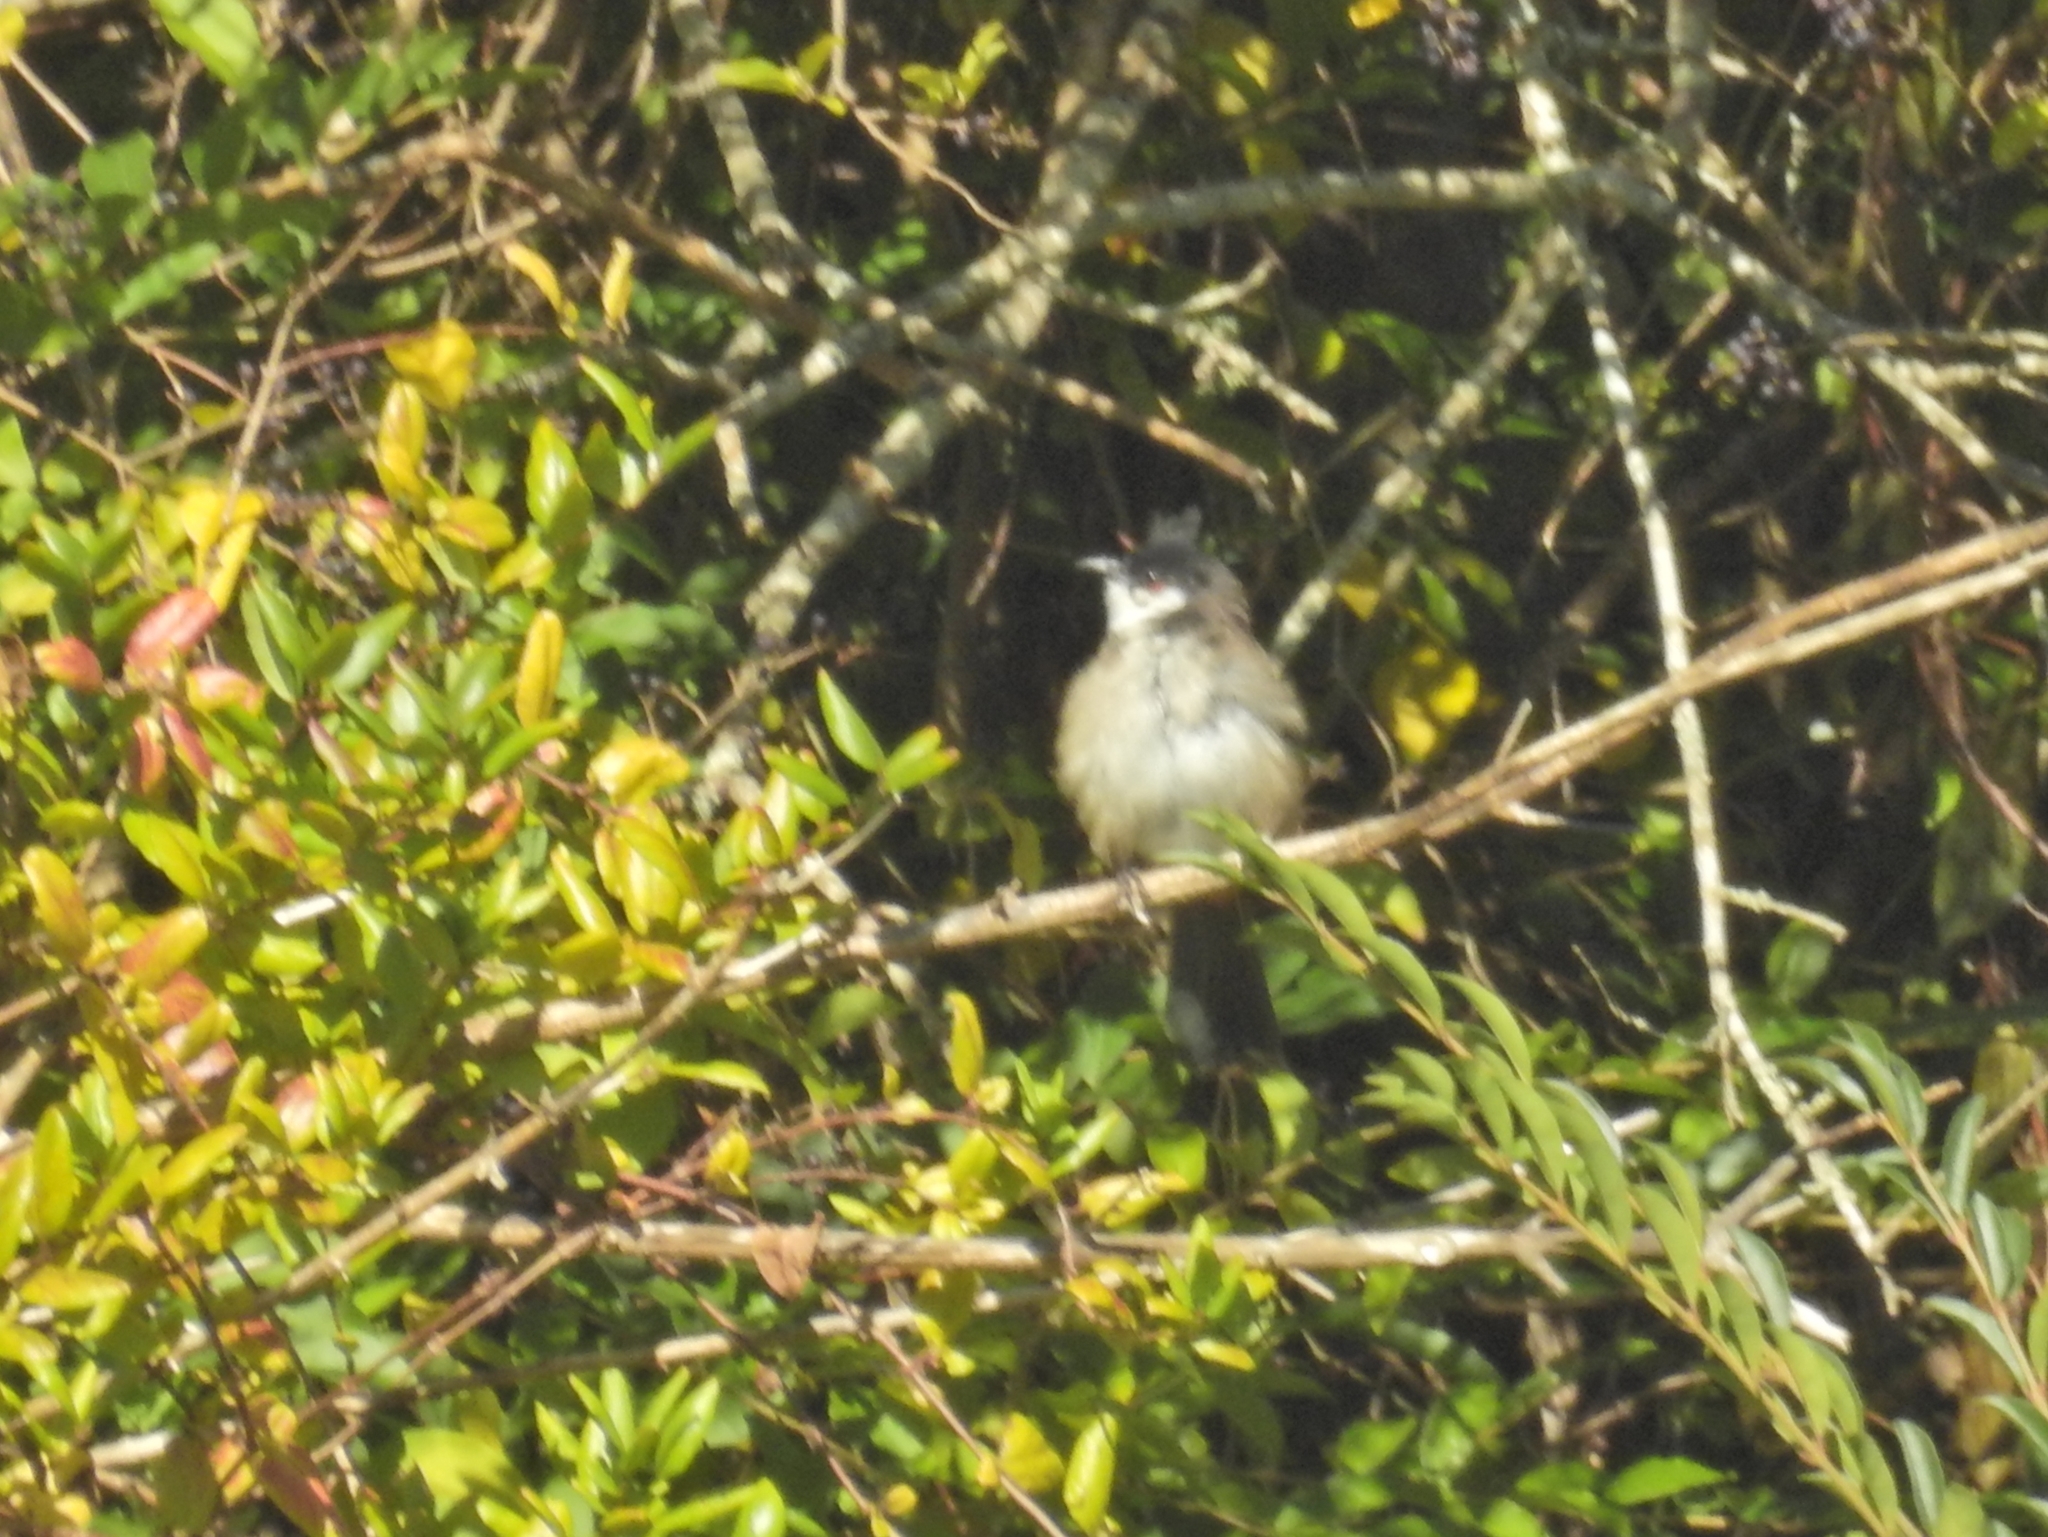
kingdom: Animalia
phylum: Chordata
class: Aves
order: Passeriformes
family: Pycnonotidae
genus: Pycnonotus
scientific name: Pycnonotus jocosus
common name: Red-whiskered bulbul
